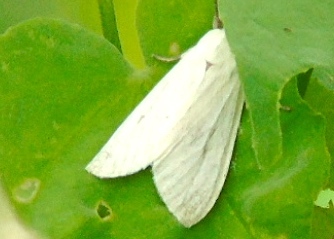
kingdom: Animalia
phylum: Arthropoda
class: Insecta
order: Lepidoptera
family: Erebidae
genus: Arctiinae
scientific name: Arctiinae
